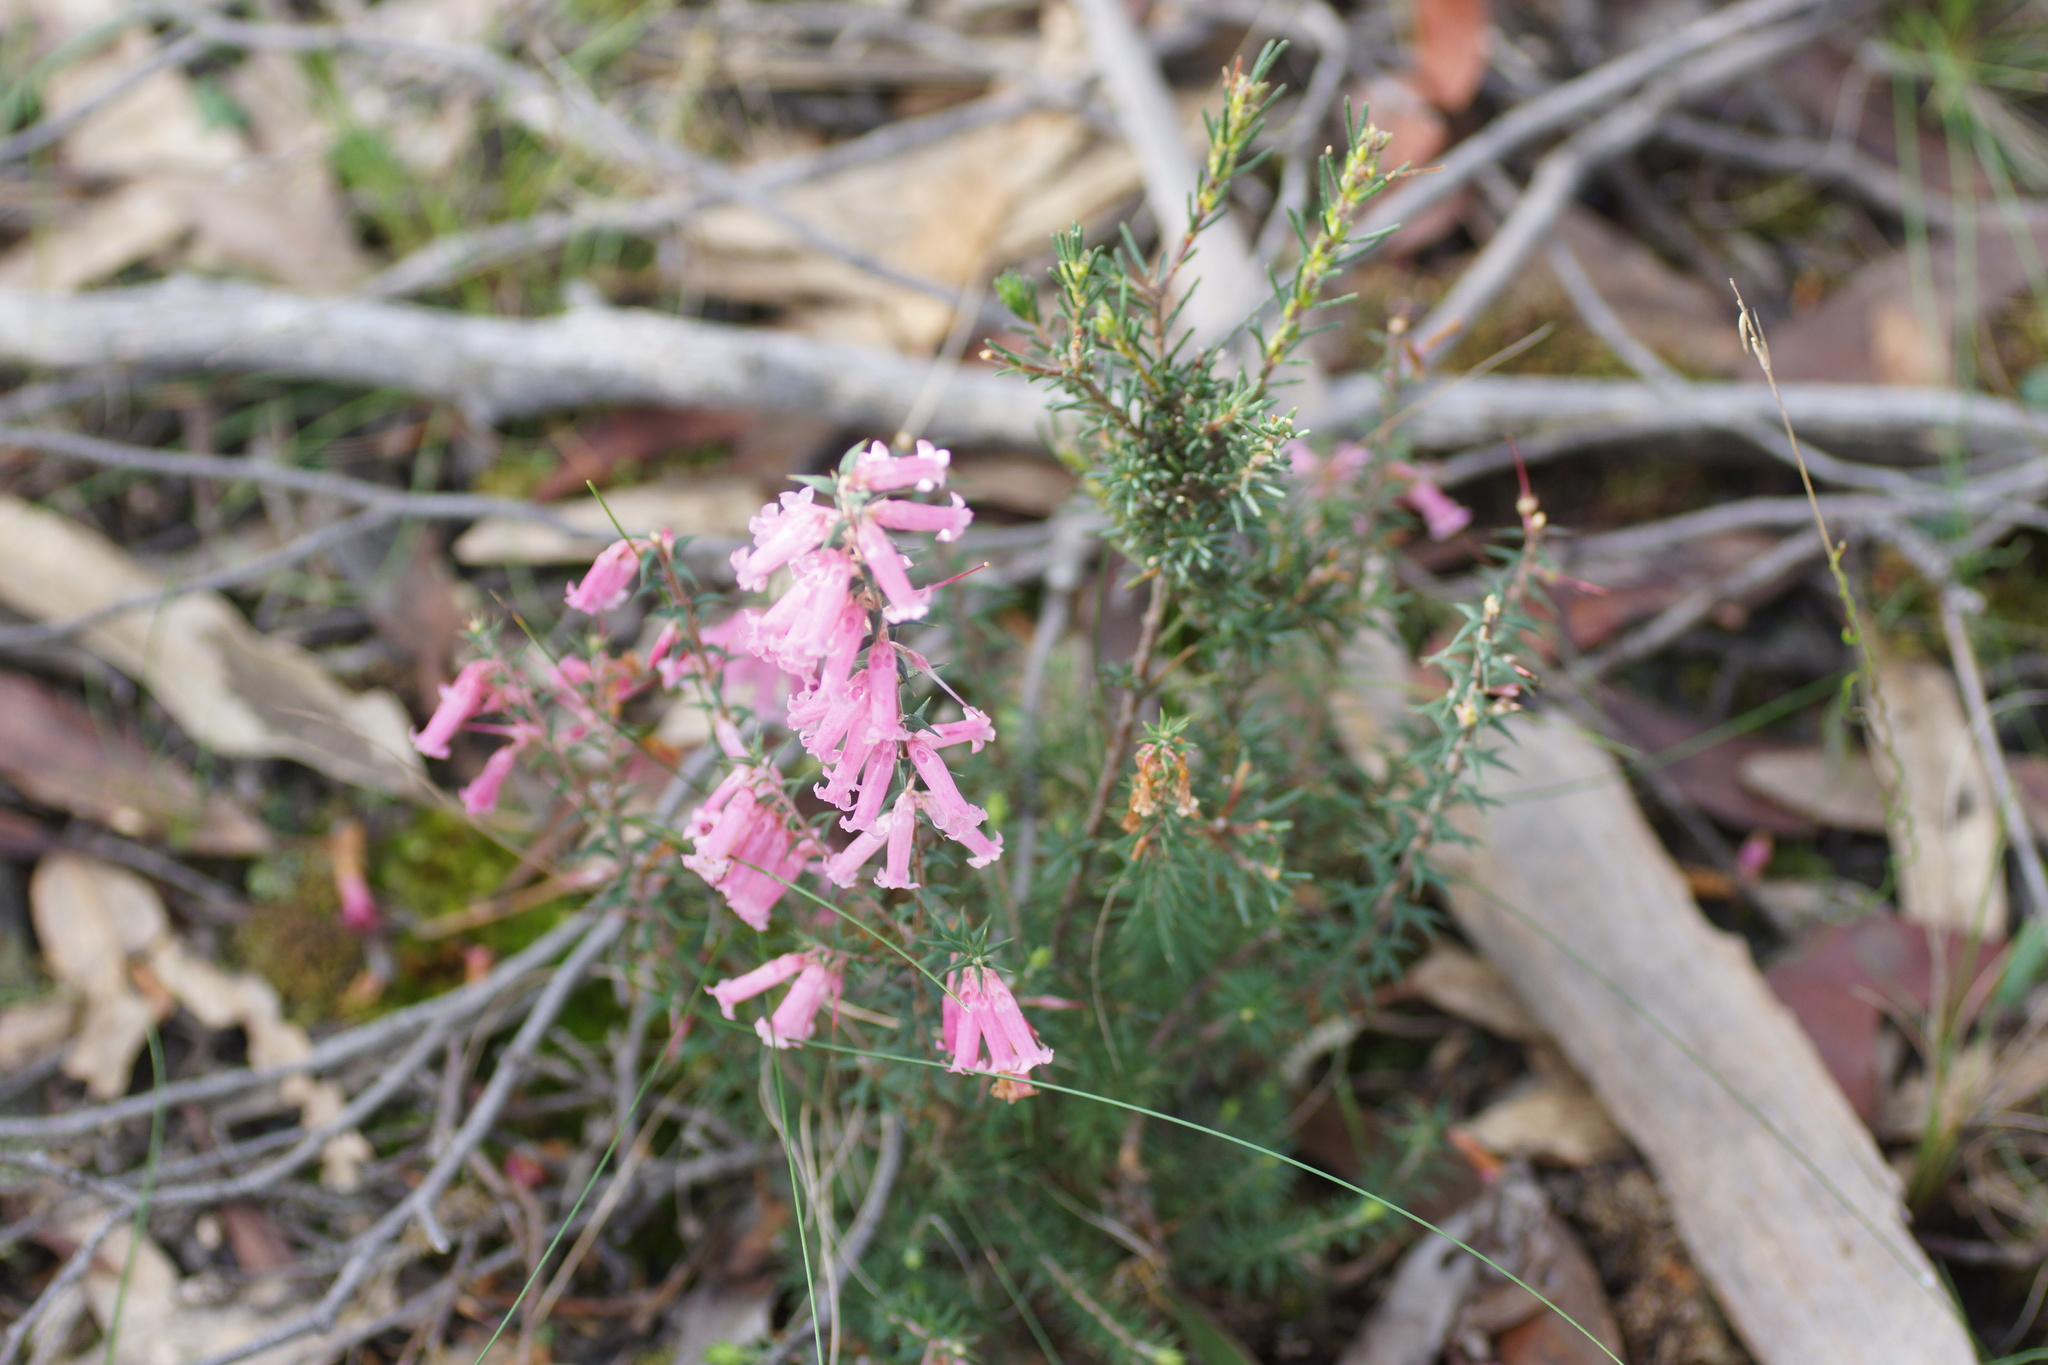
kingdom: Plantae
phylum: Tracheophyta
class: Magnoliopsida
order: Ericales
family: Ericaceae
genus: Epacris
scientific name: Epacris impressa
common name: Common-heath
